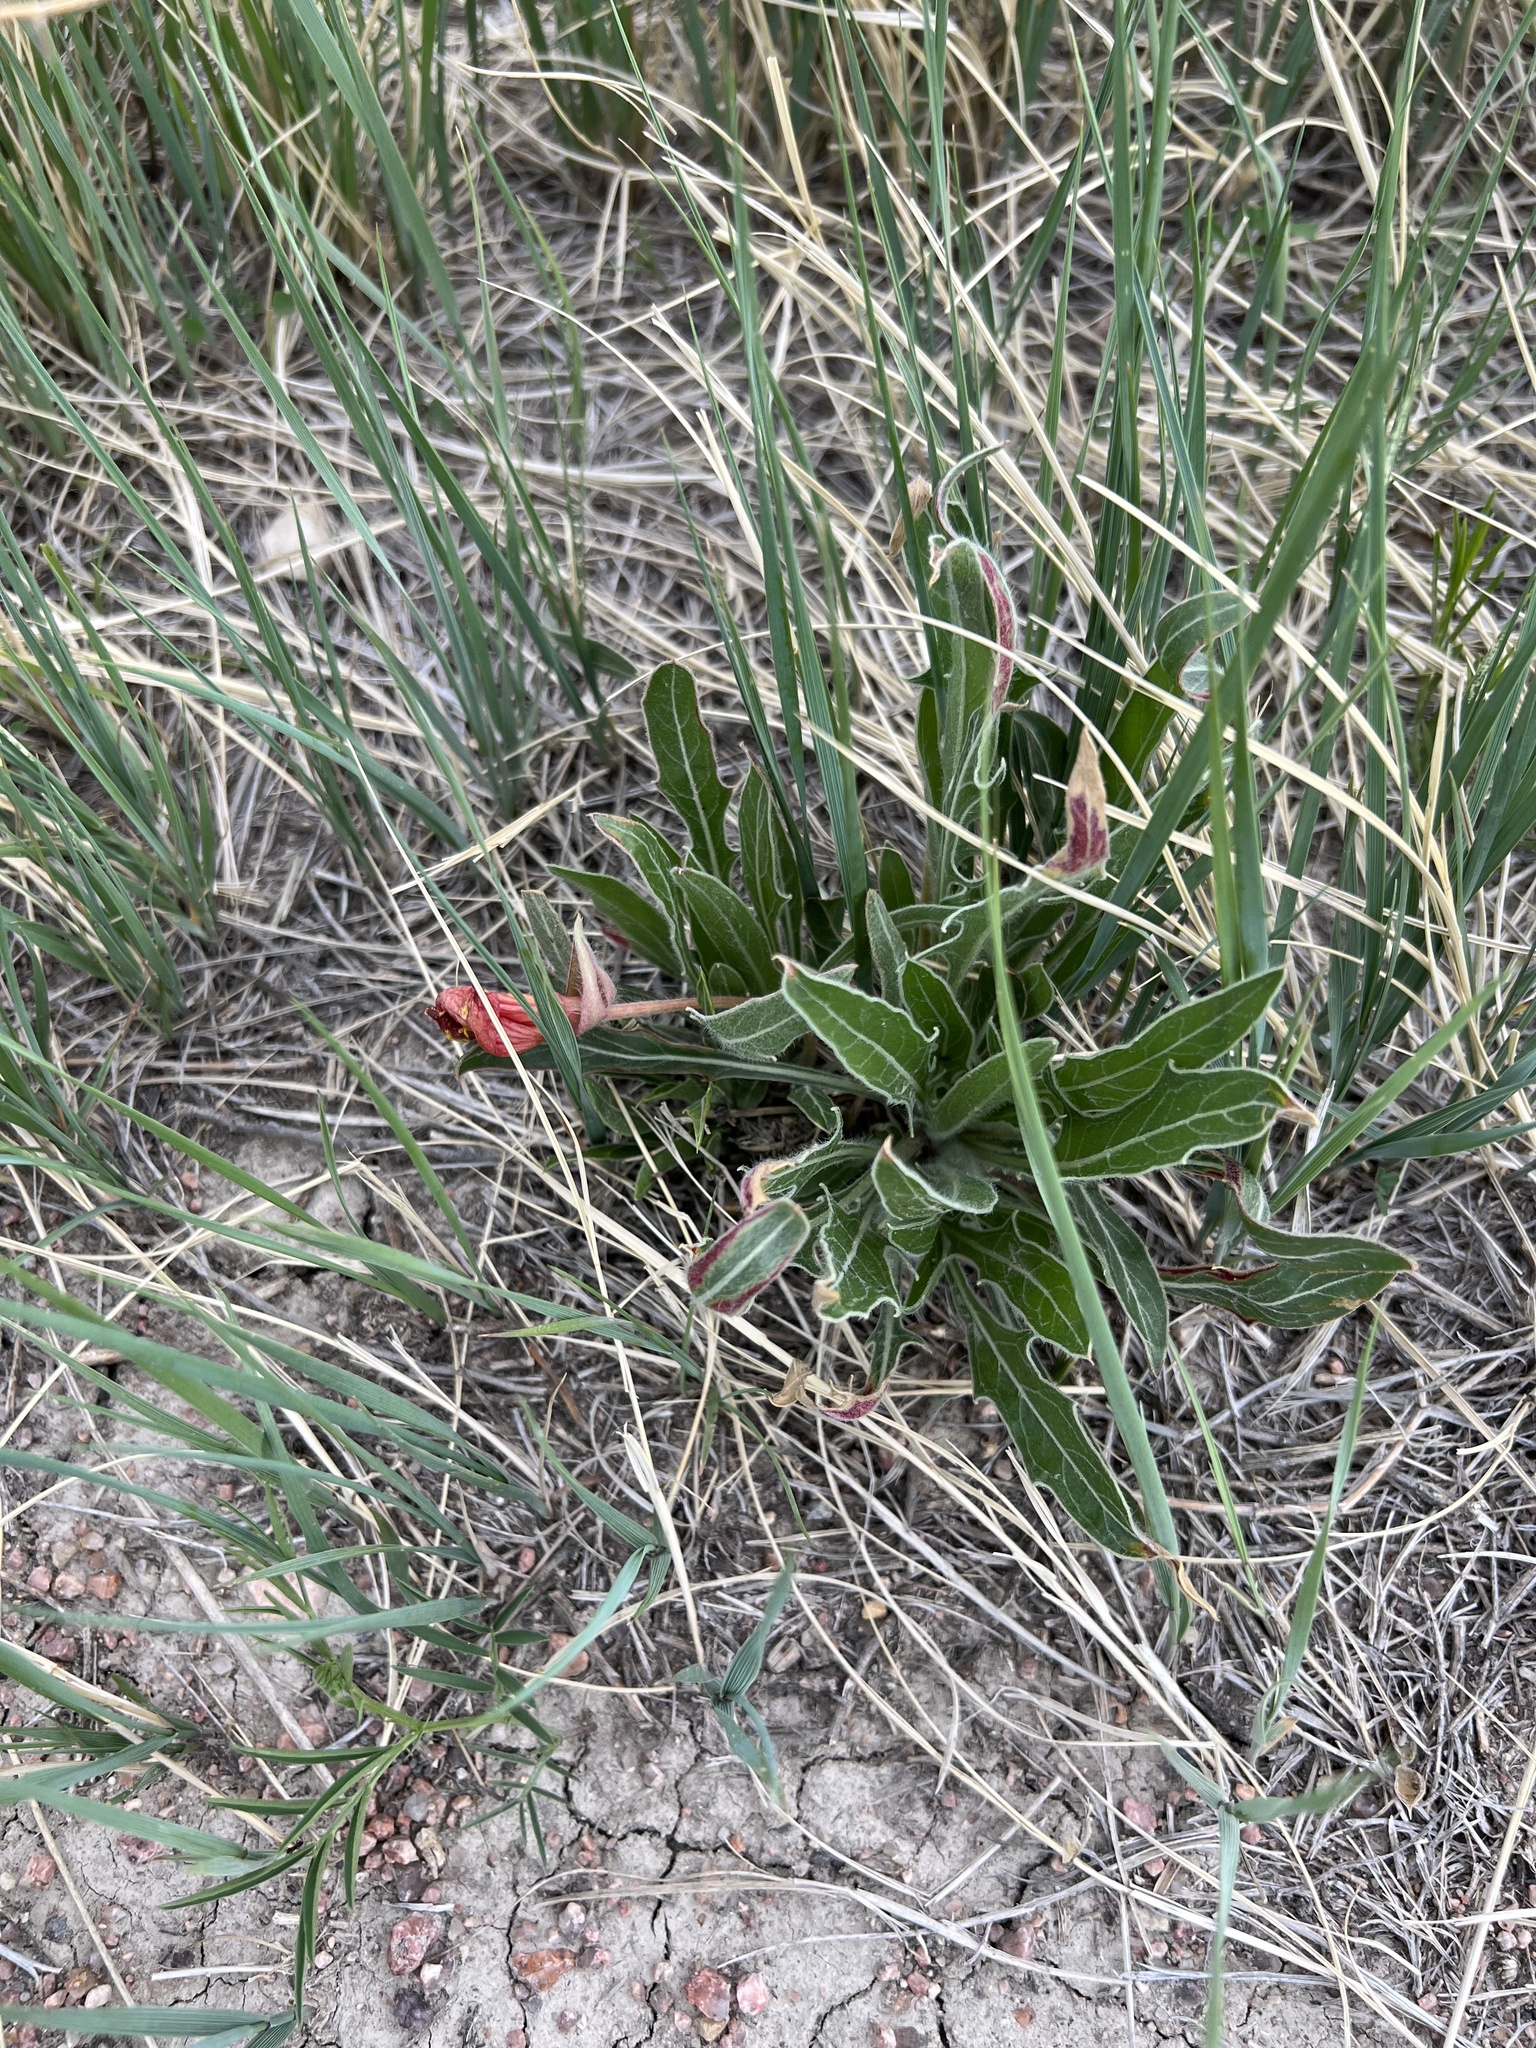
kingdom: Plantae
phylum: Tracheophyta
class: Magnoliopsida
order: Myrtales
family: Onagraceae
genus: Oenothera
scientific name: Oenothera cespitosa
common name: Tufted evening-primrose
